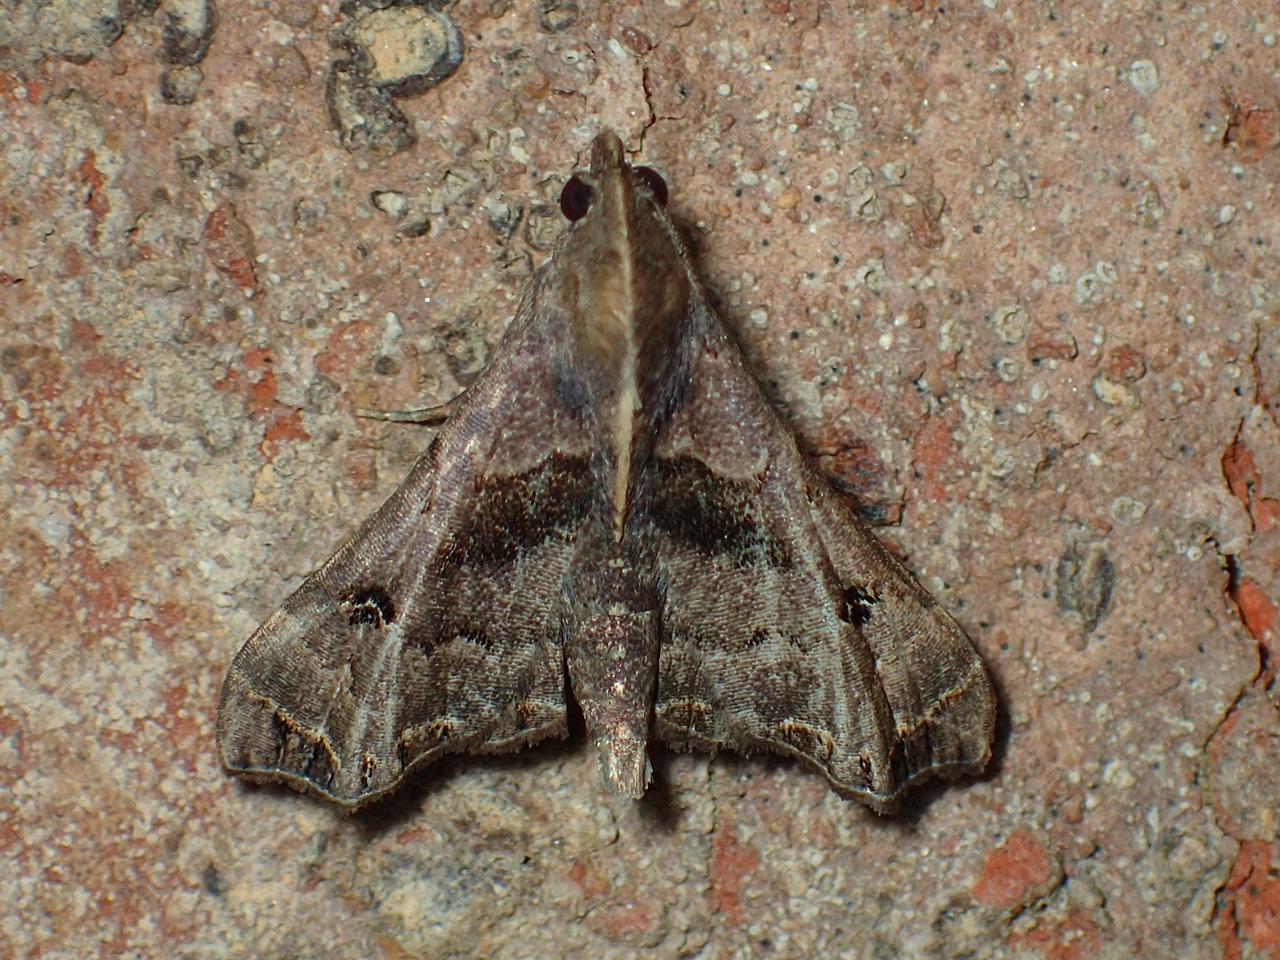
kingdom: Animalia
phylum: Arthropoda
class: Insecta
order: Lepidoptera
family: Erebidae
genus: Palthis
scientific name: Palthis asopialis
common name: Faint-spotted palthis moth
